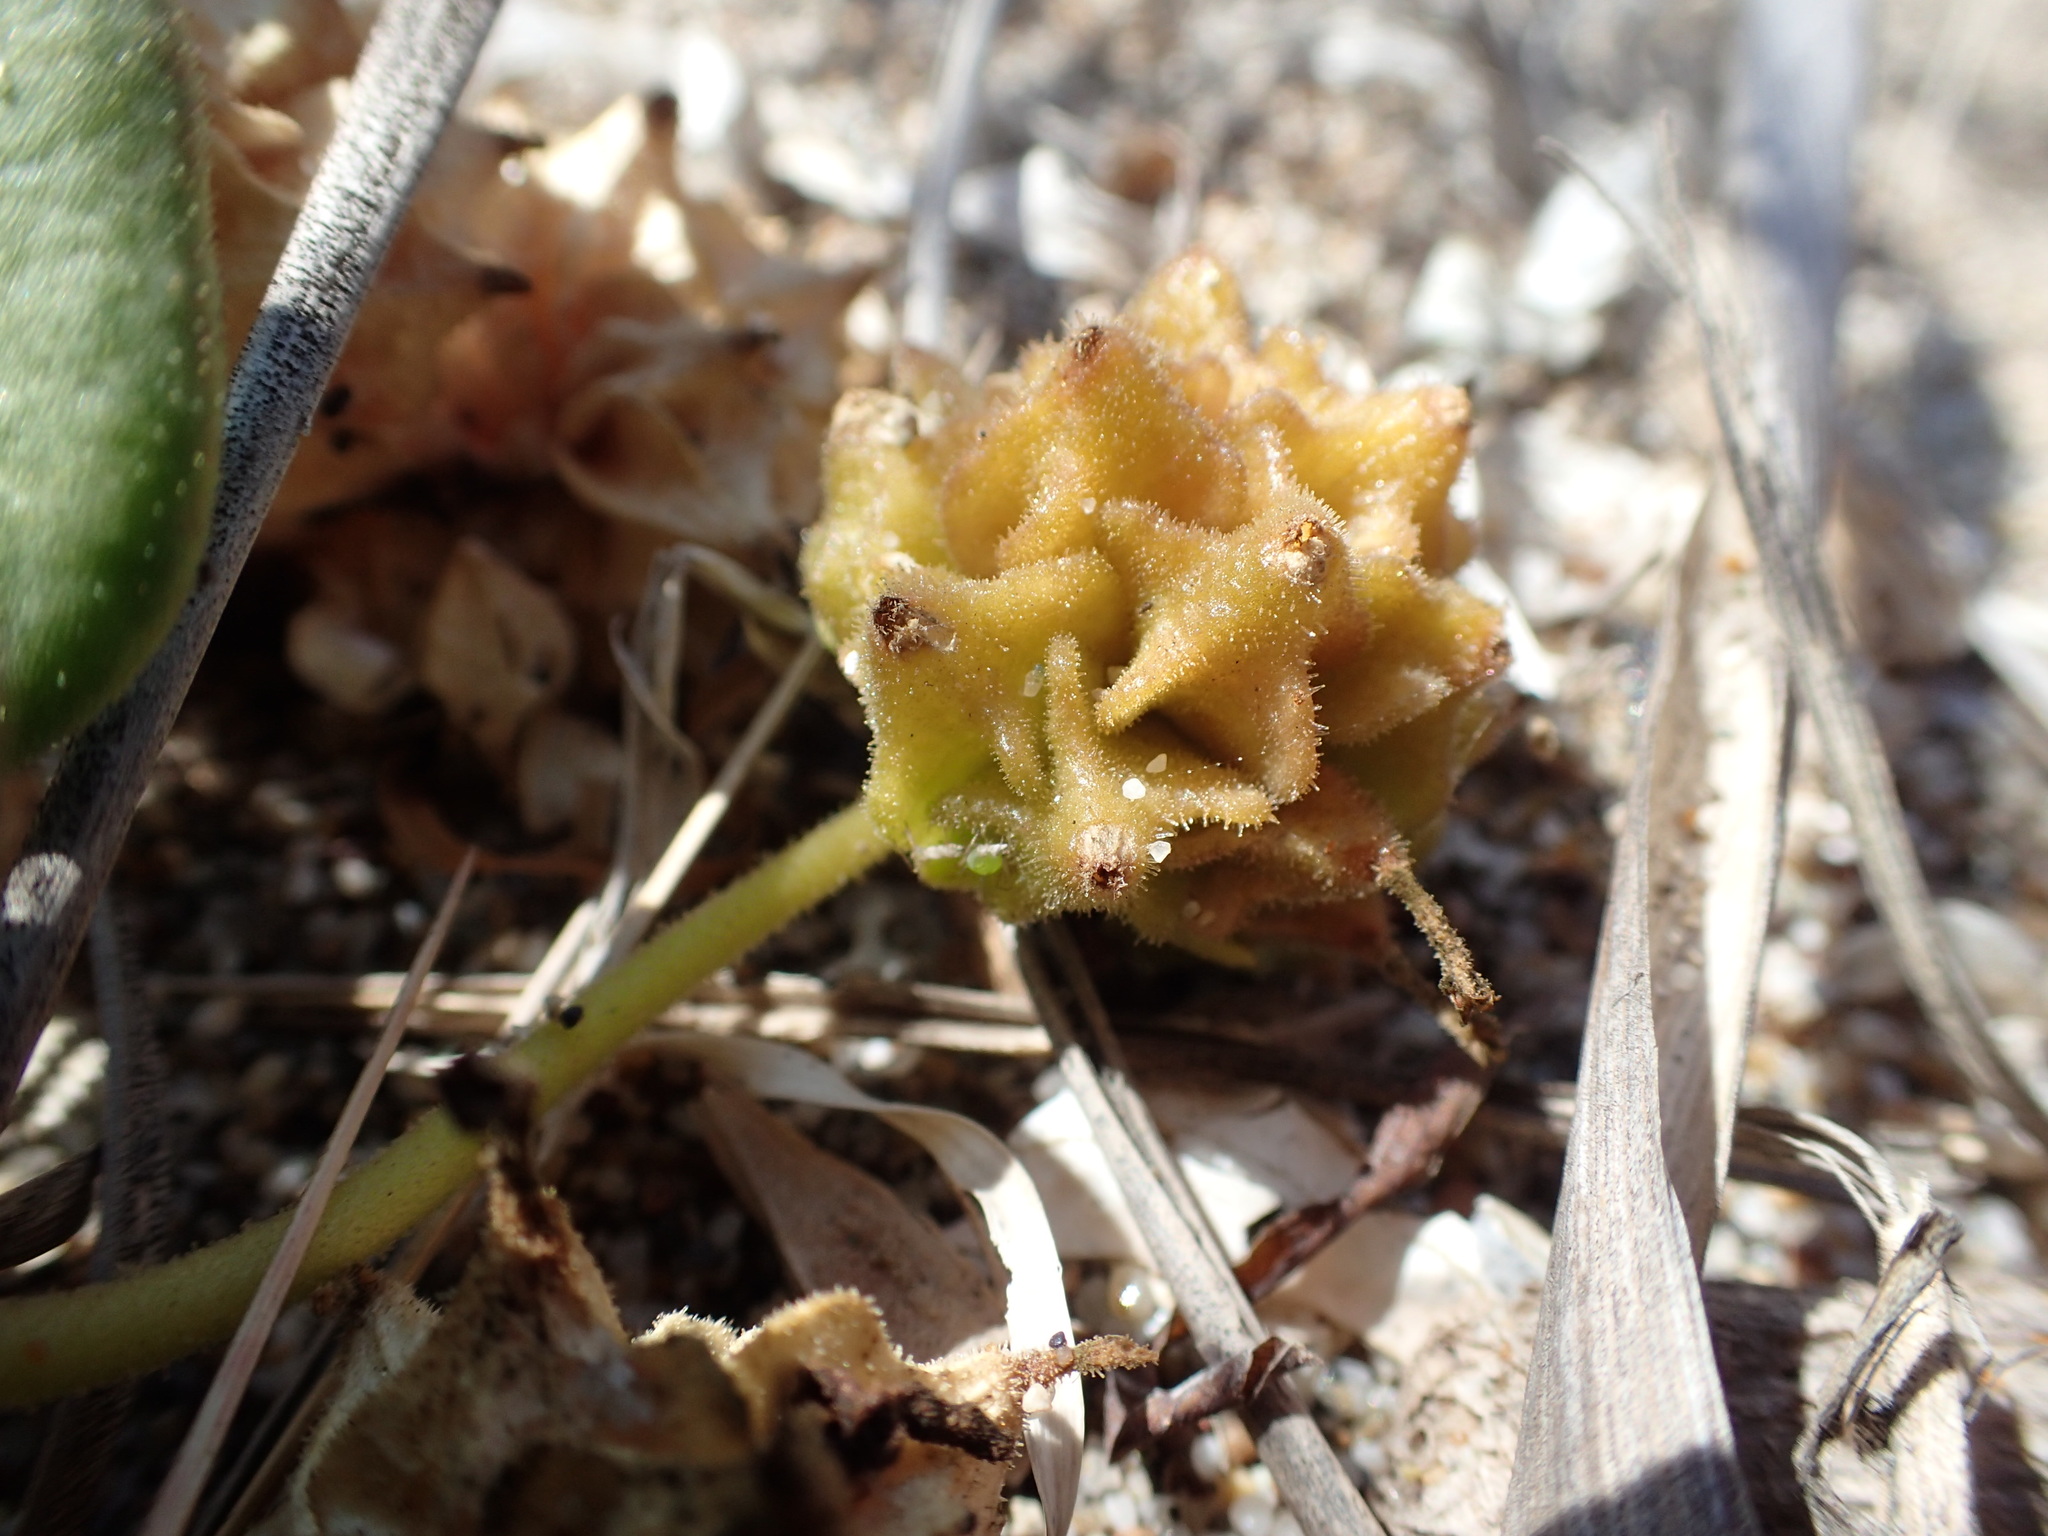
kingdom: Plantae
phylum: Tracheophyta
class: Magnoliopsida
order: Caryophyllales
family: Nyctaginaceae
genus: Abronia
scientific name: Abronia latifolia
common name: Yellow sand-verbena
